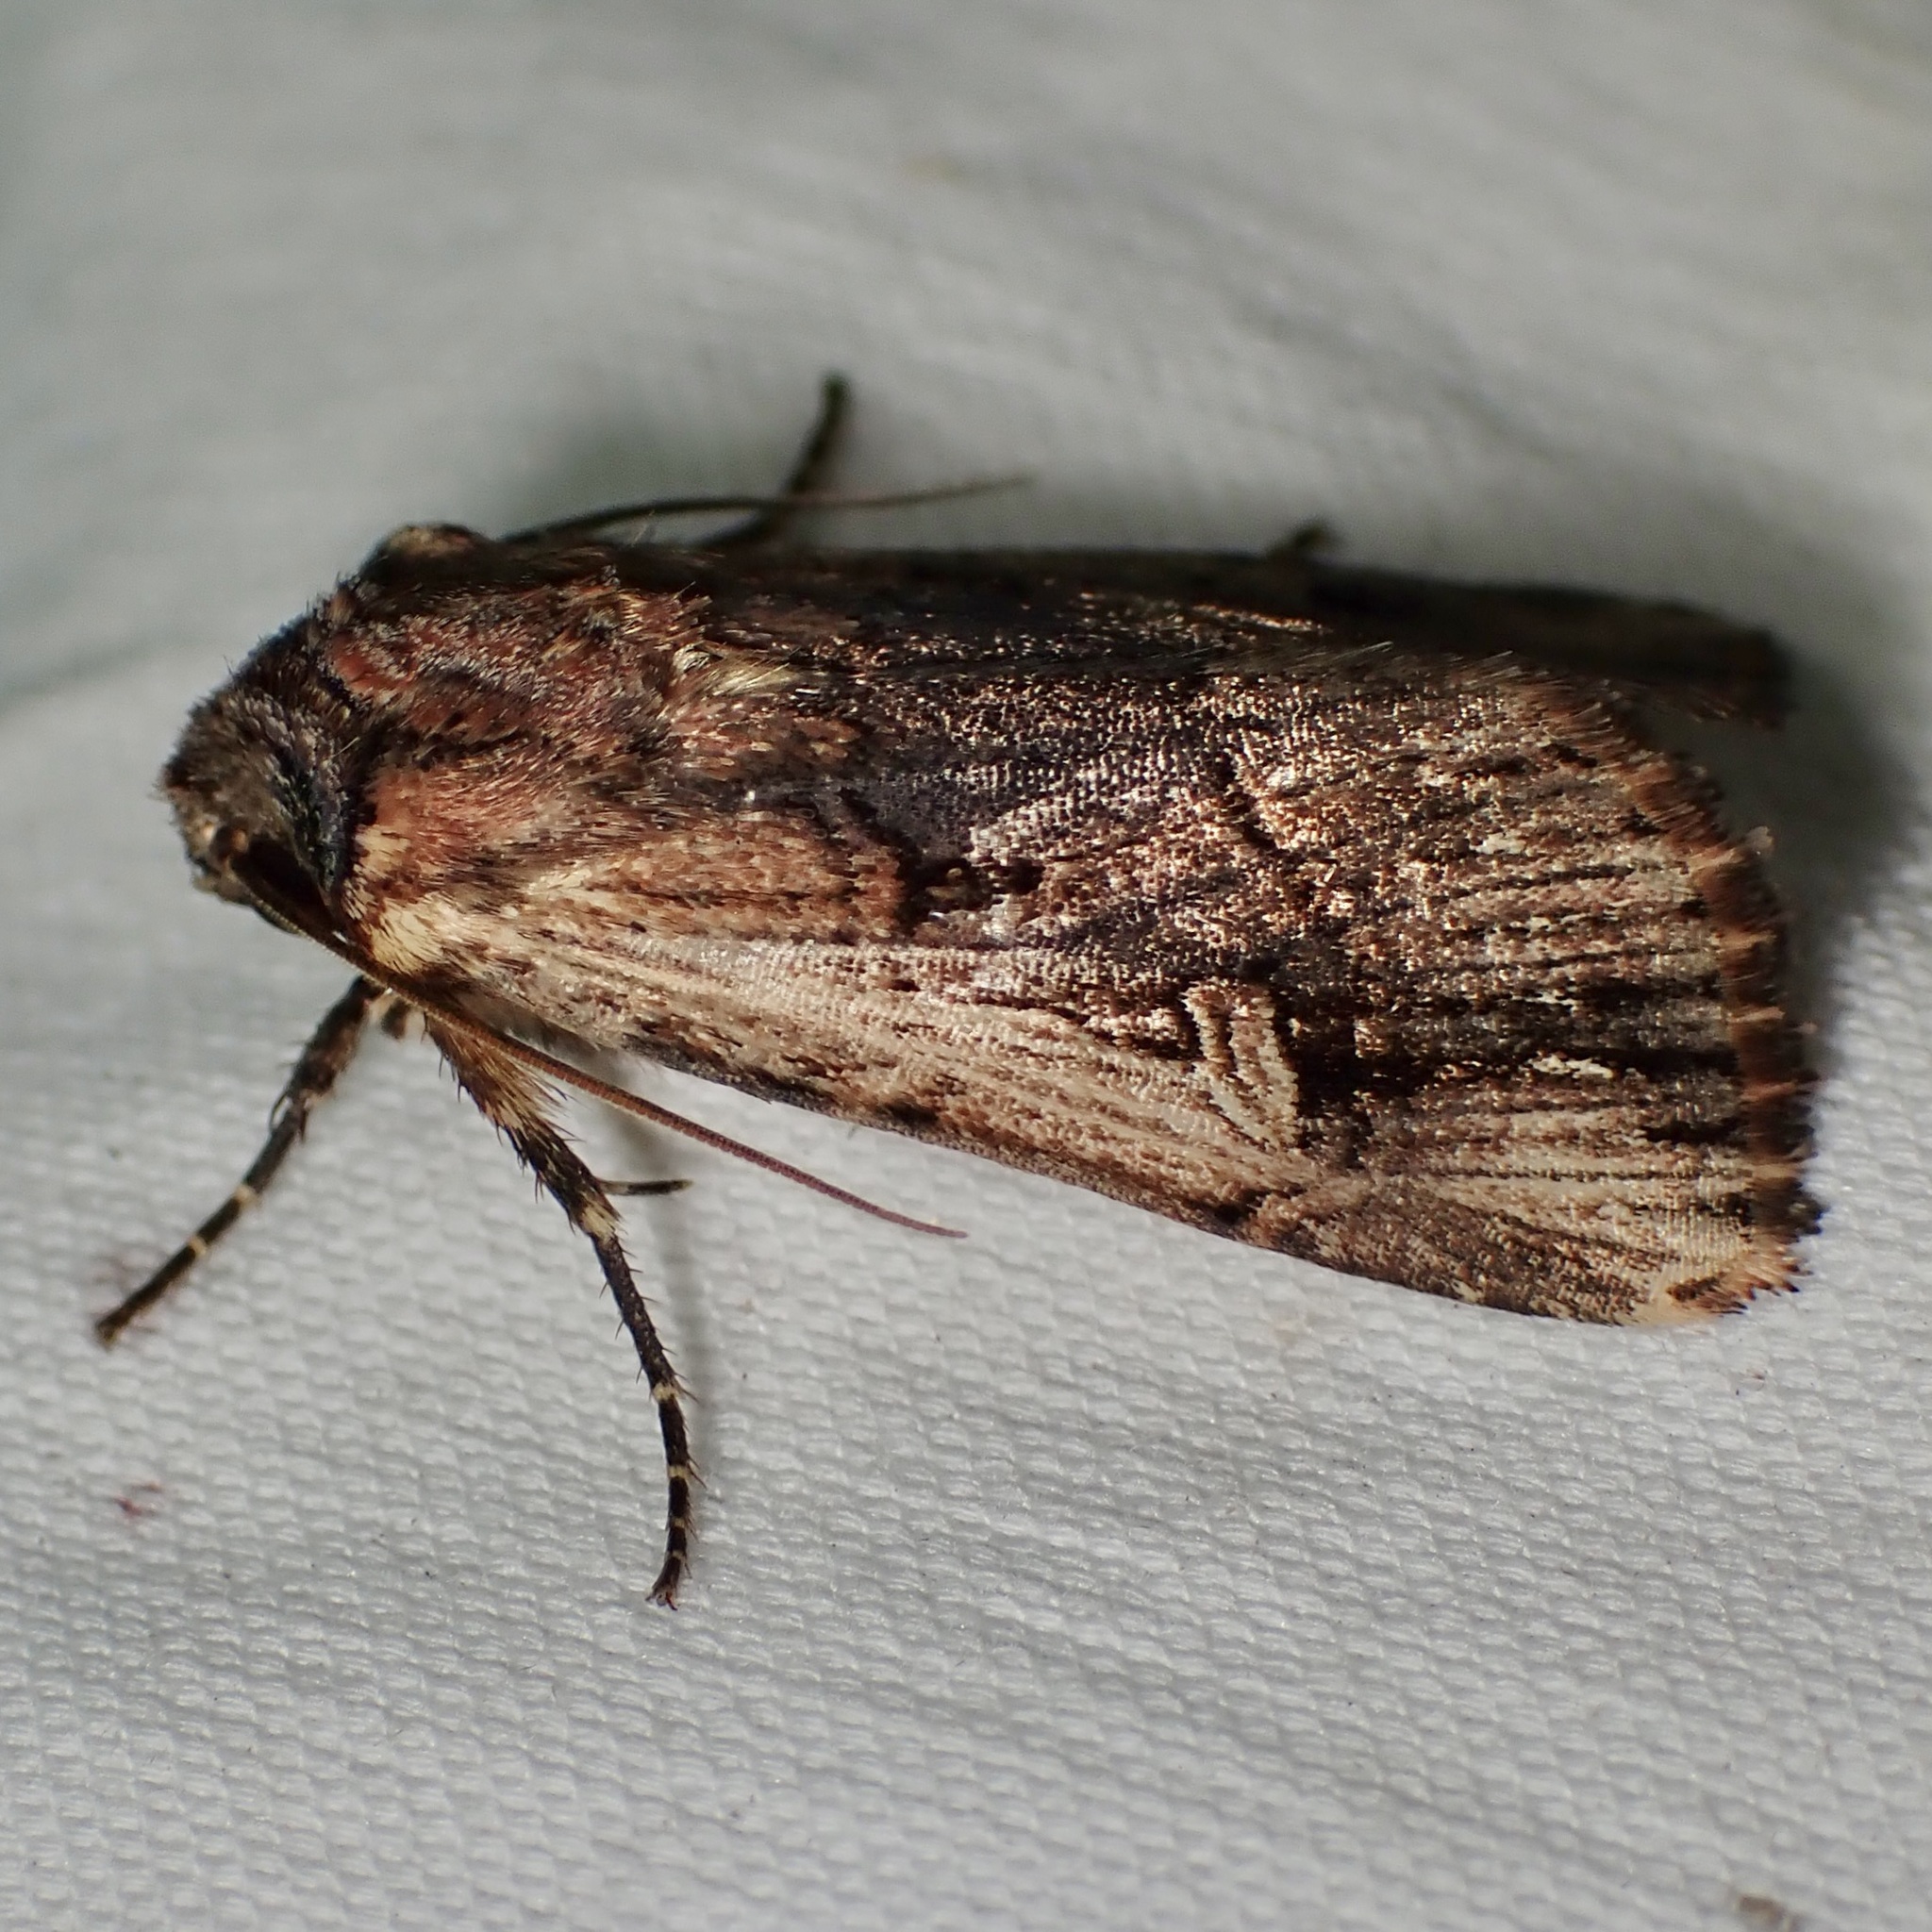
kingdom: Animalia
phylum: Arthropoda
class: Insecta
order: Lepidoptera
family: Noctuidae
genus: Dichagyris
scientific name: Dichagyris cataclivis
